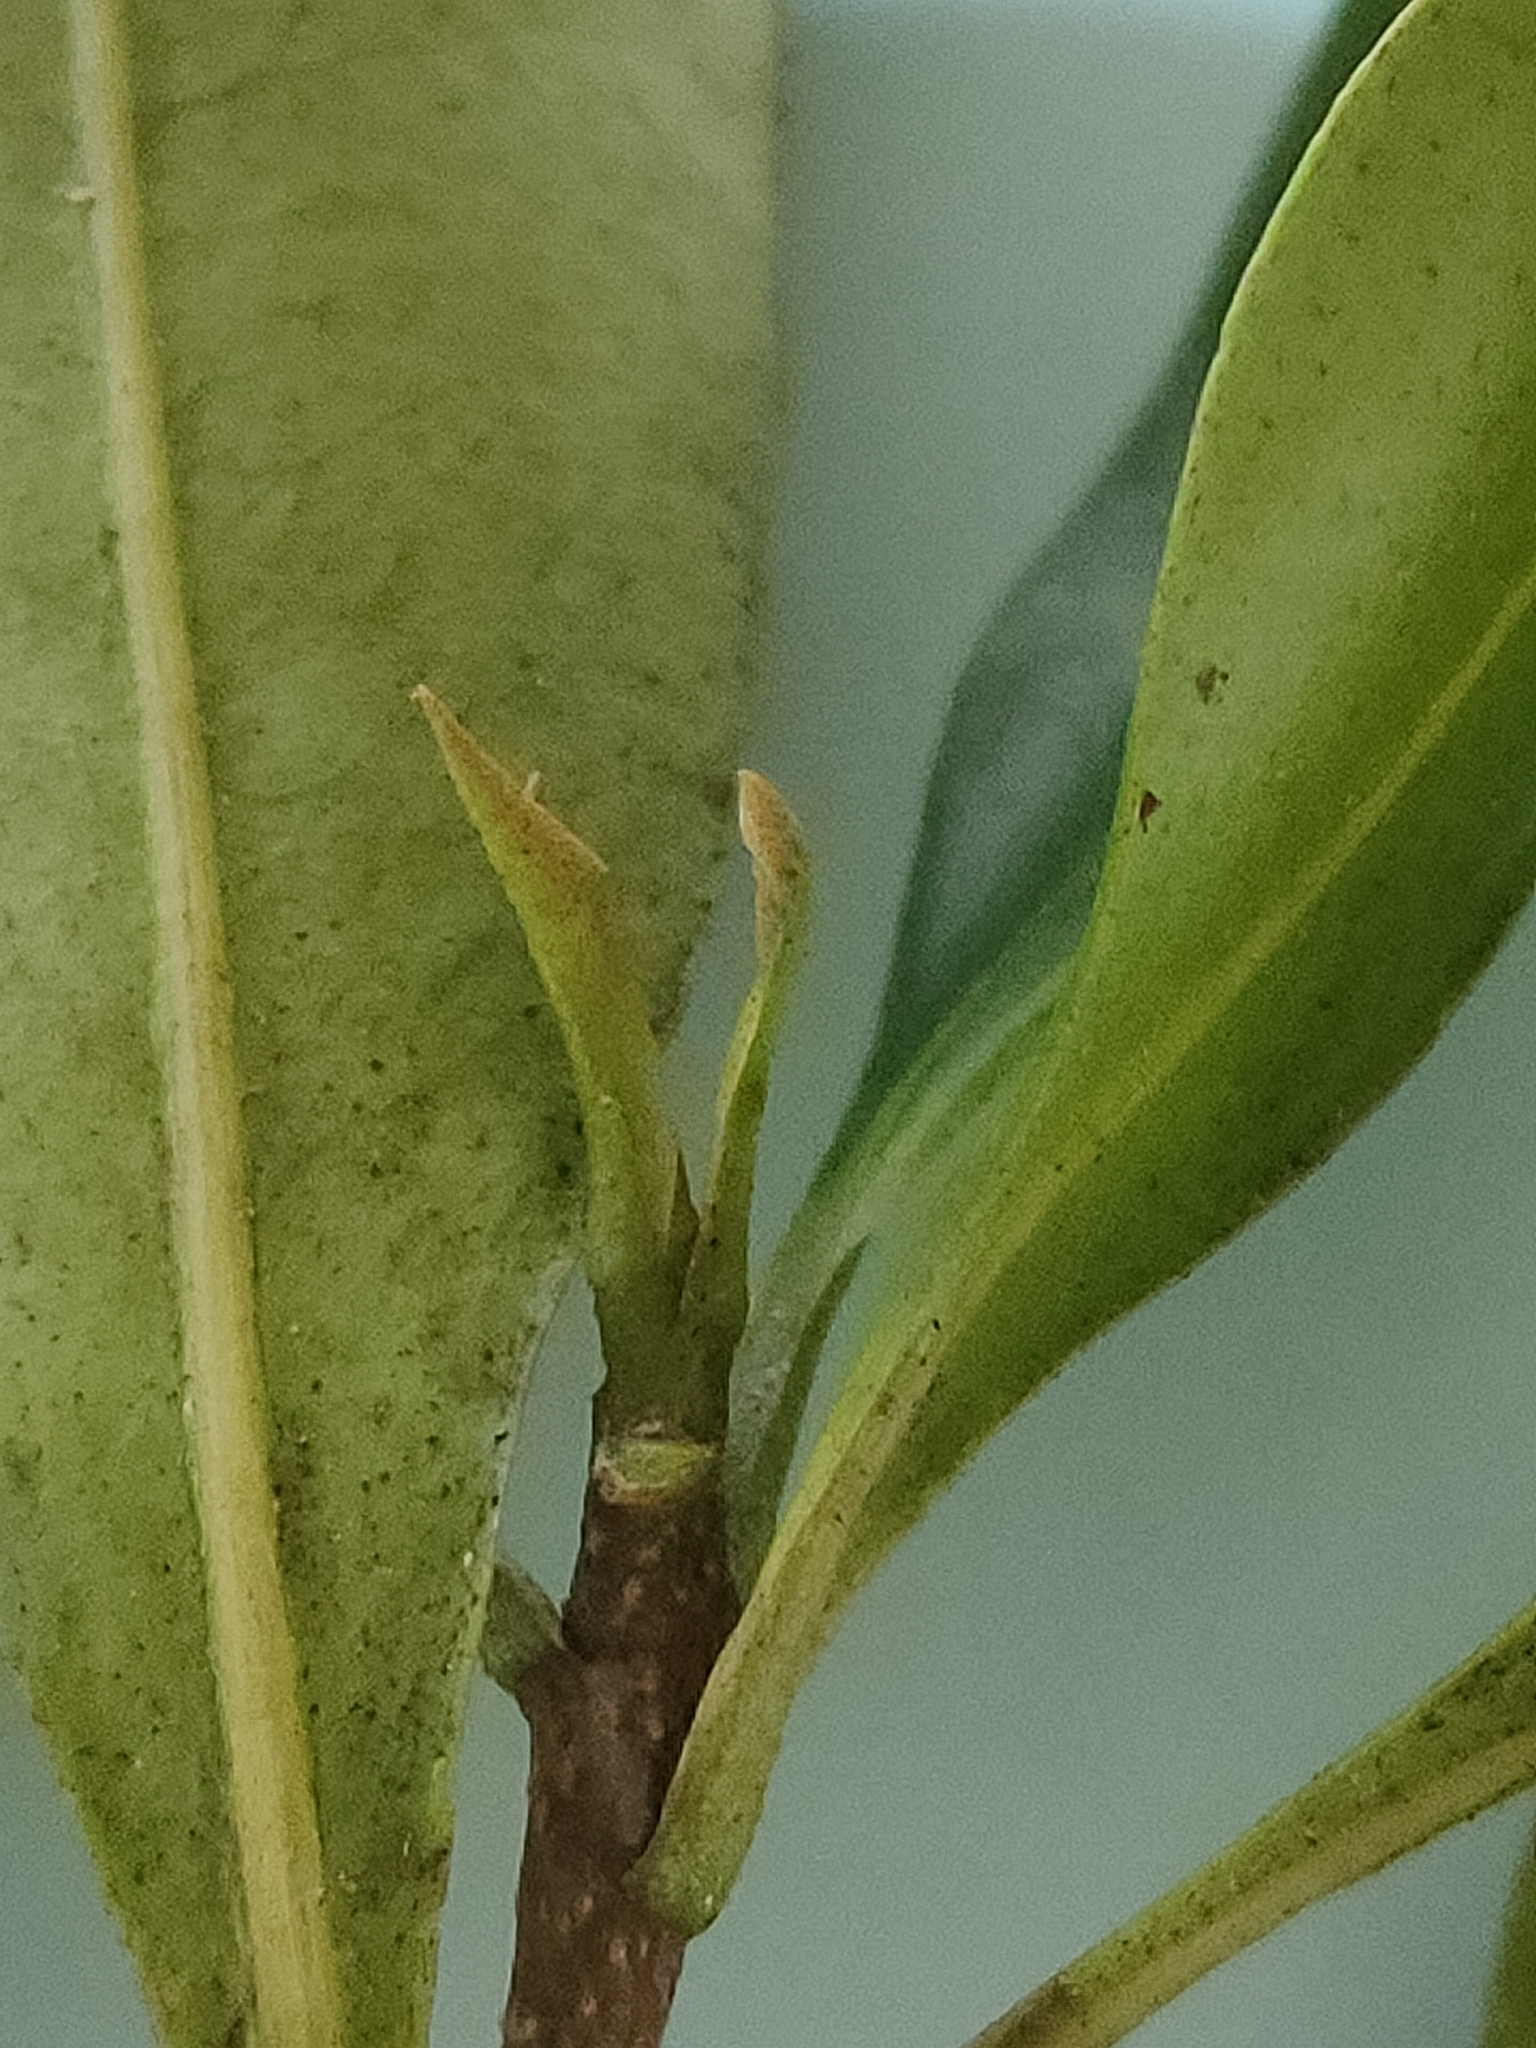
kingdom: Plantae
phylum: Tracheophyta
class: Magnoliopsida
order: Ericales
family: Primulaceae
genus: Myrsine
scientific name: Myrsine serpenticola
